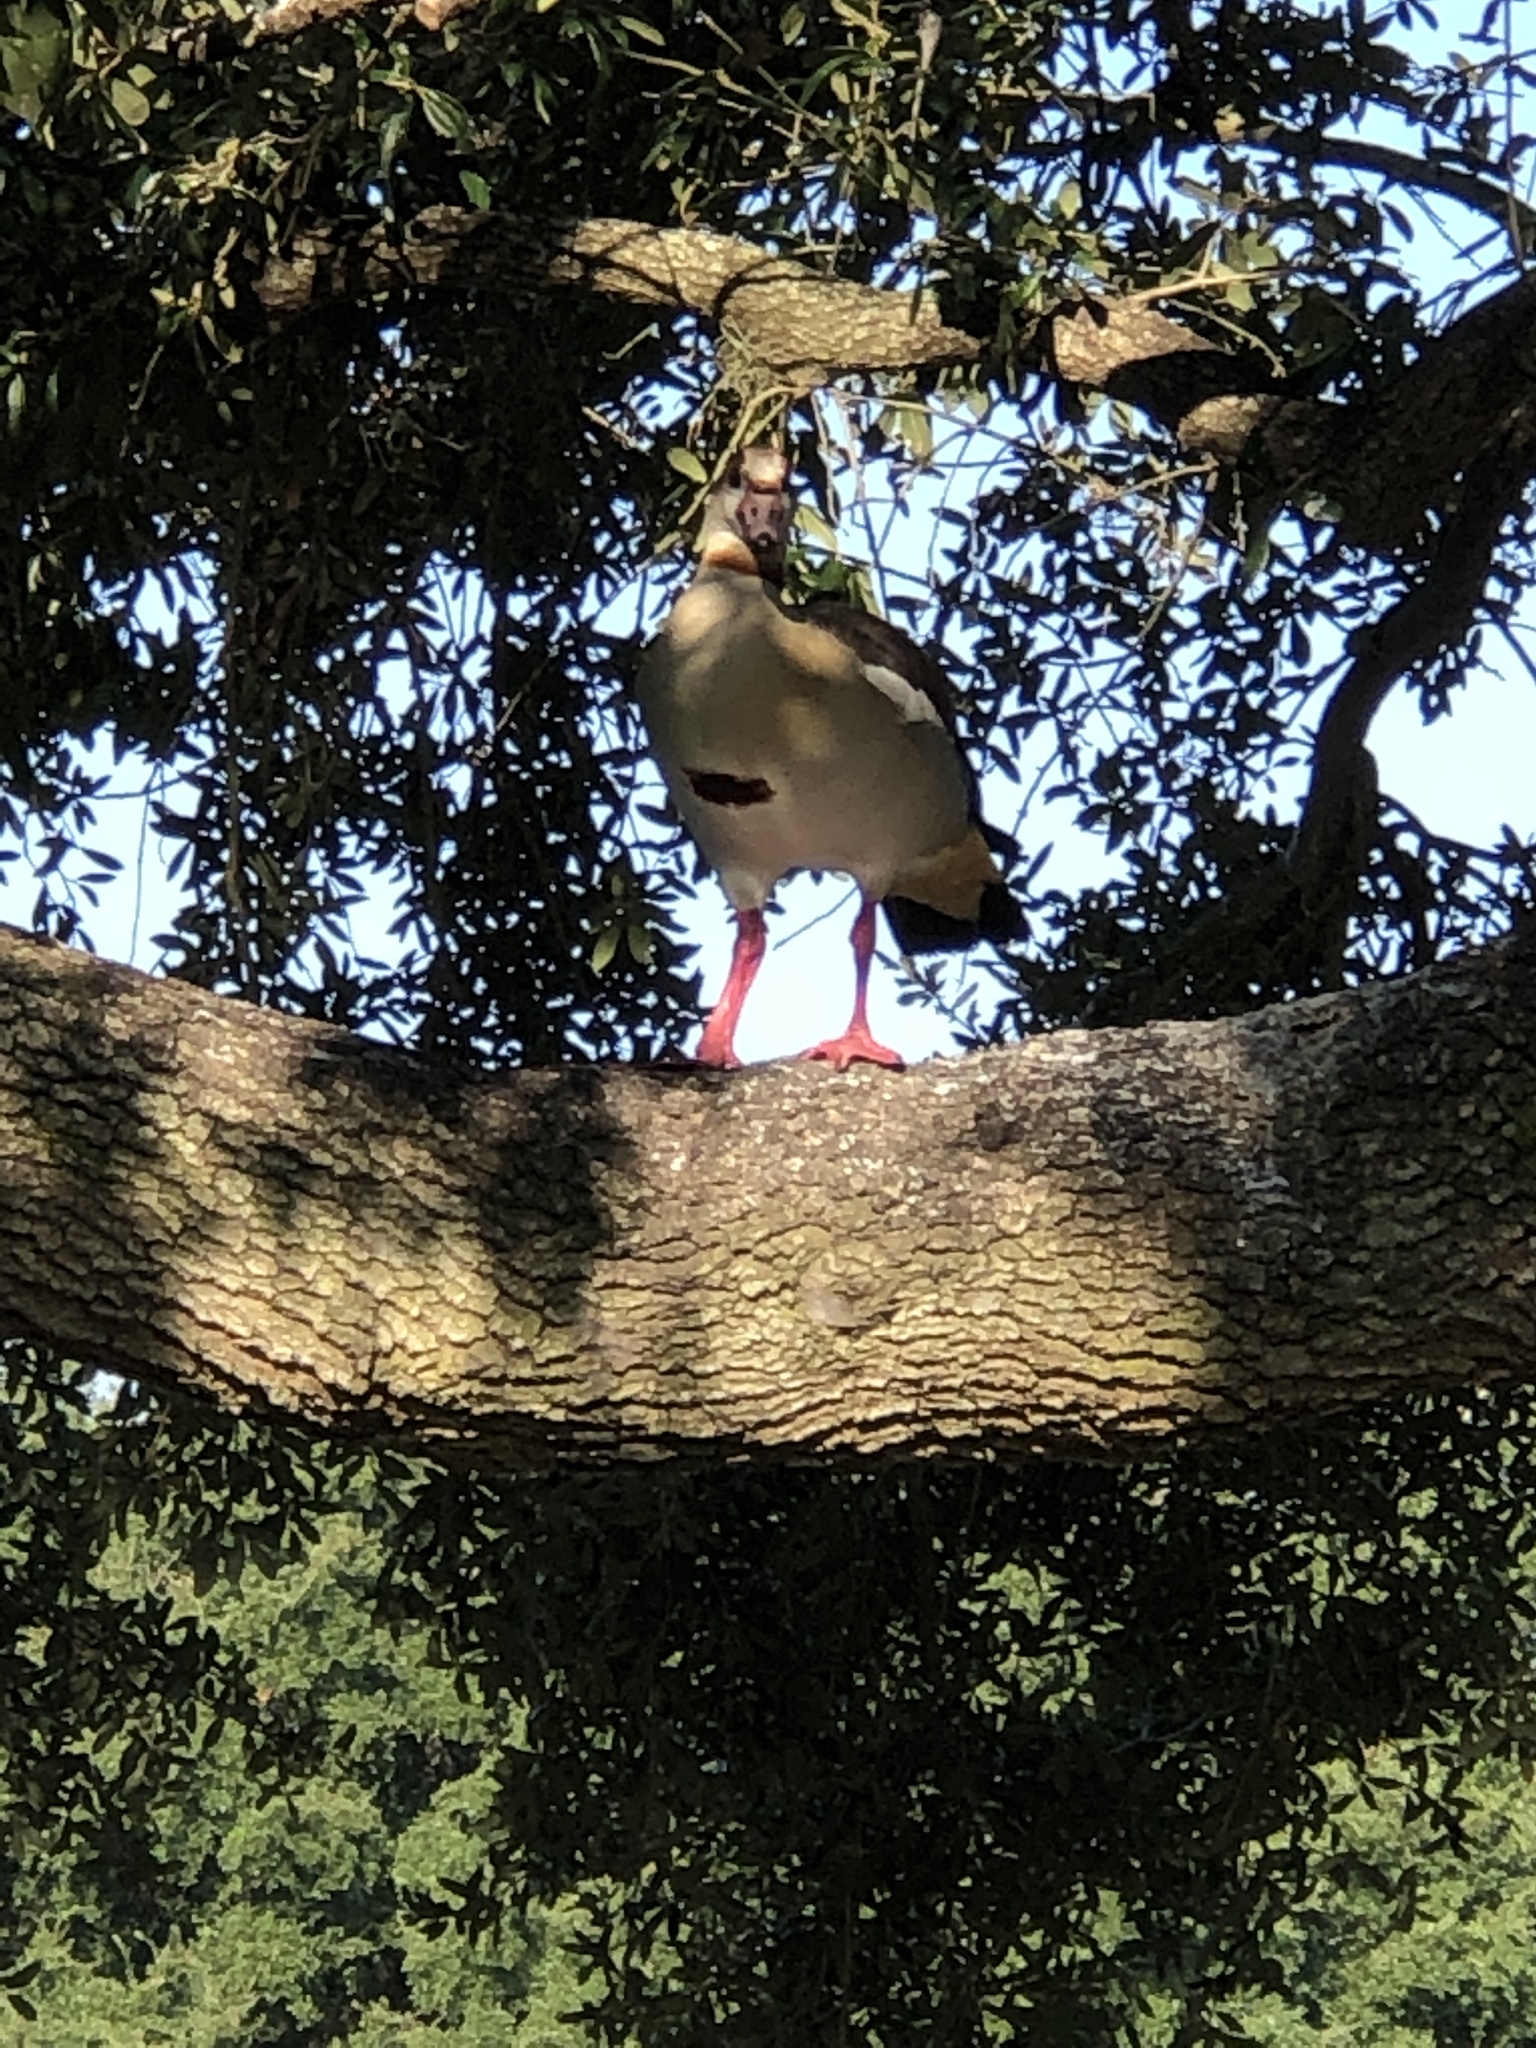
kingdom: Animalia
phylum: Chordata
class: Aves
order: Anseriformes
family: Anatidae
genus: Alopochen
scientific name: Alopochen aegyptiaca
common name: Egyptian goose
